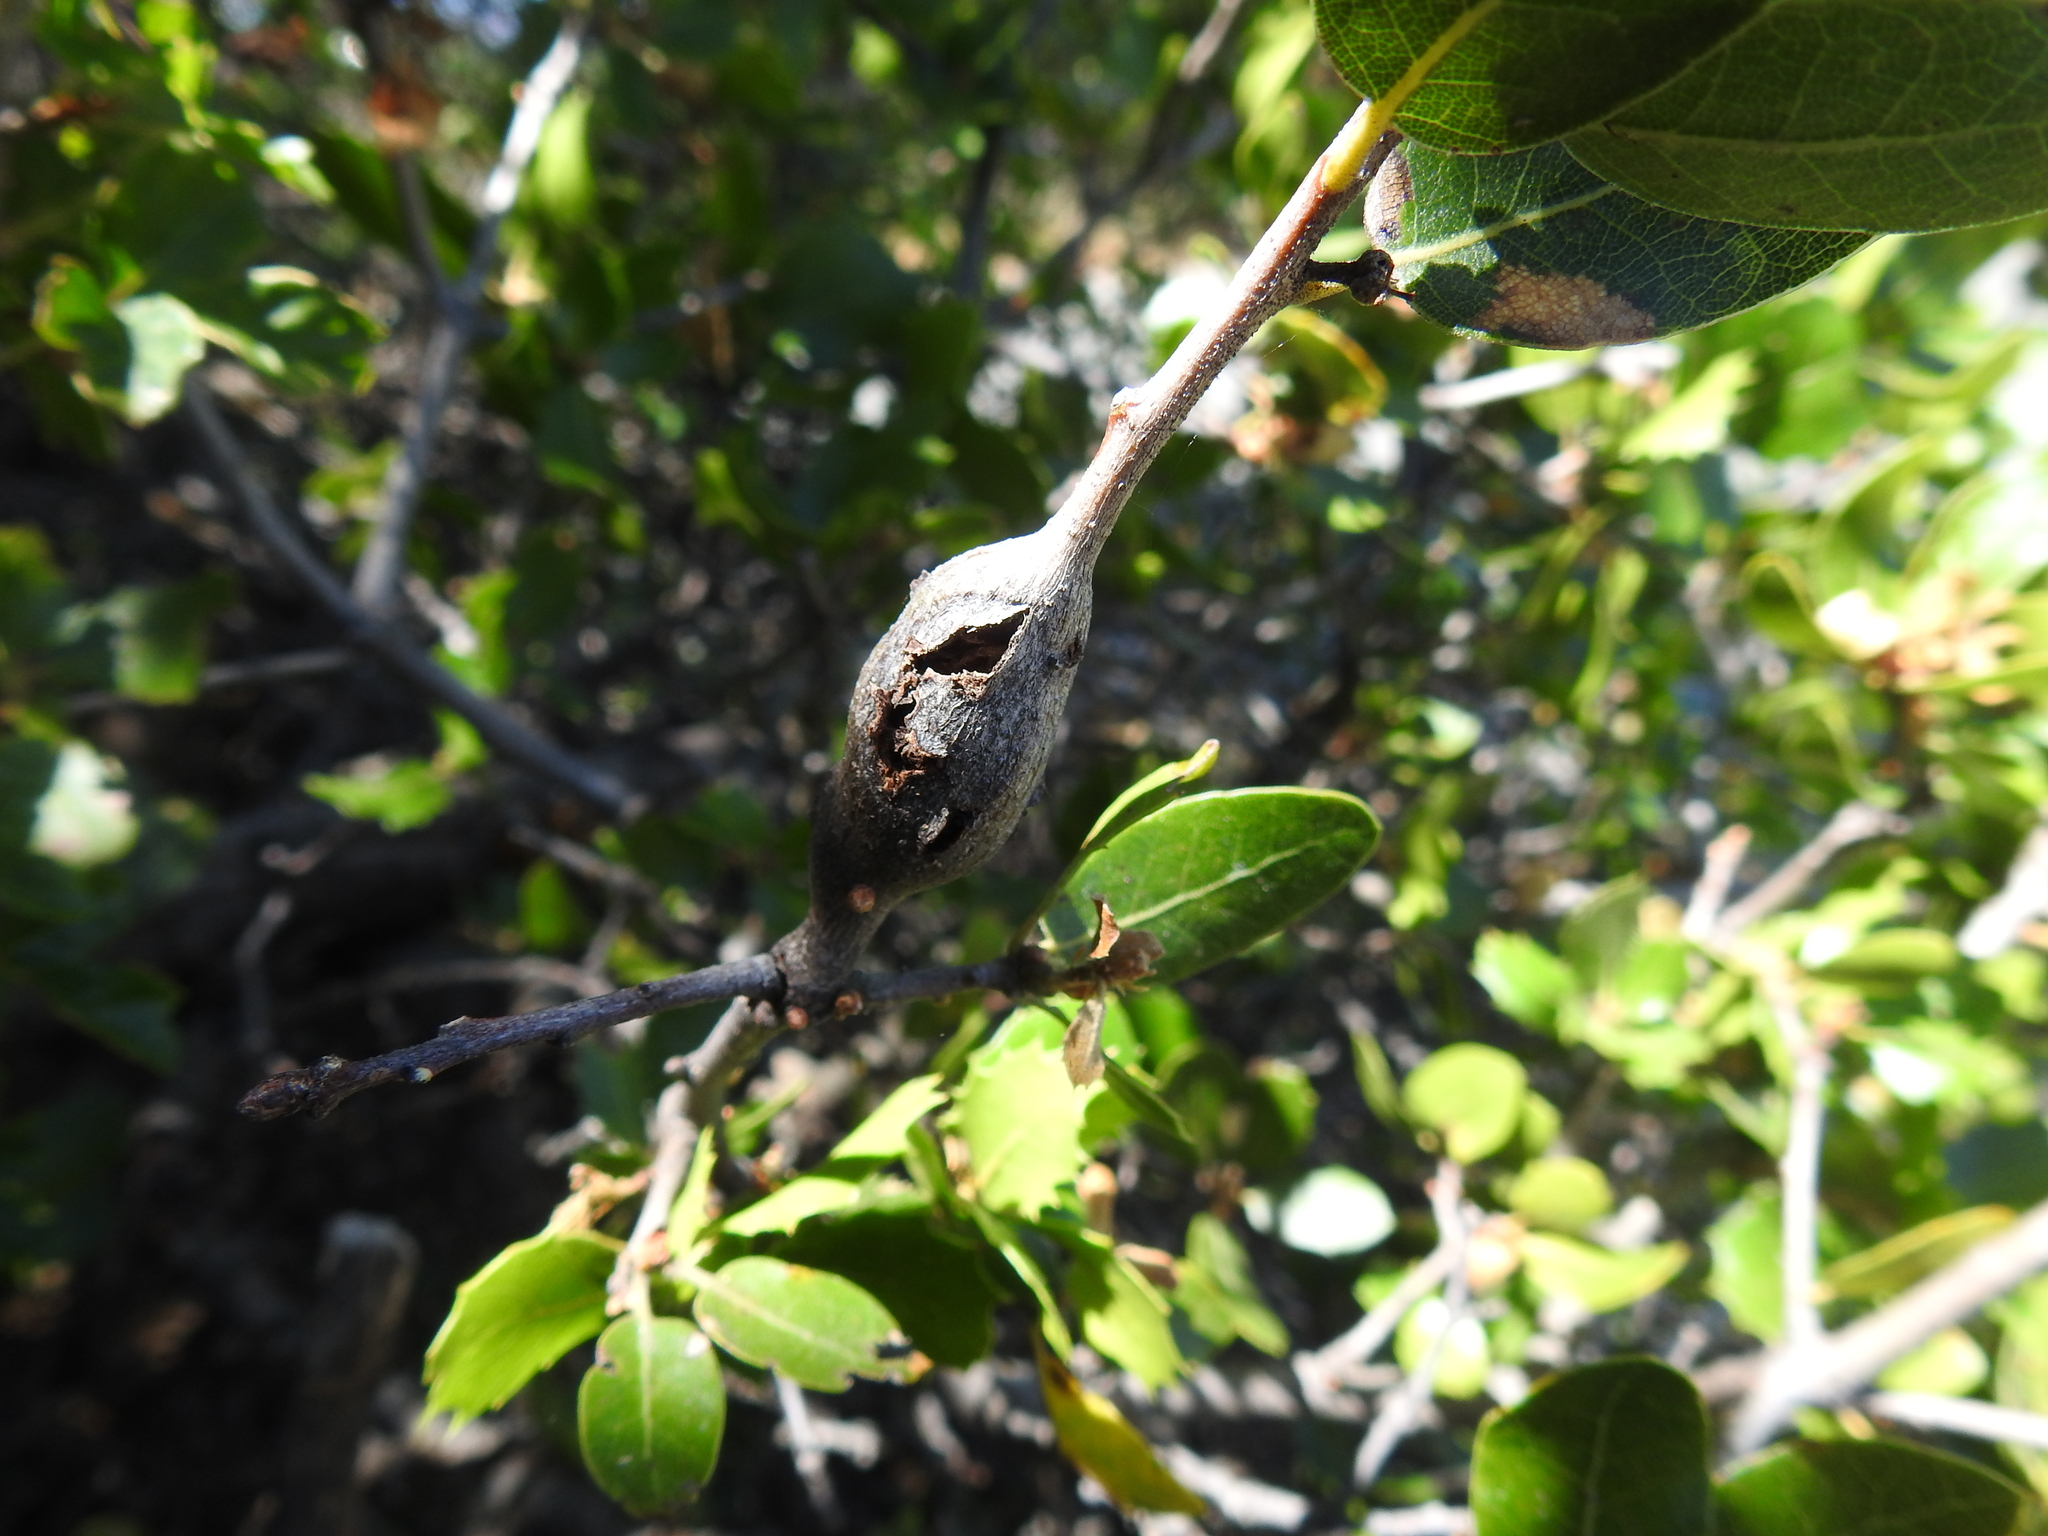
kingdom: Animalia
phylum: Arthropoda
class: Insecta
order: Hymenoptera
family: Cynipidae
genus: Dryocosmus
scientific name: Dryocosmus
